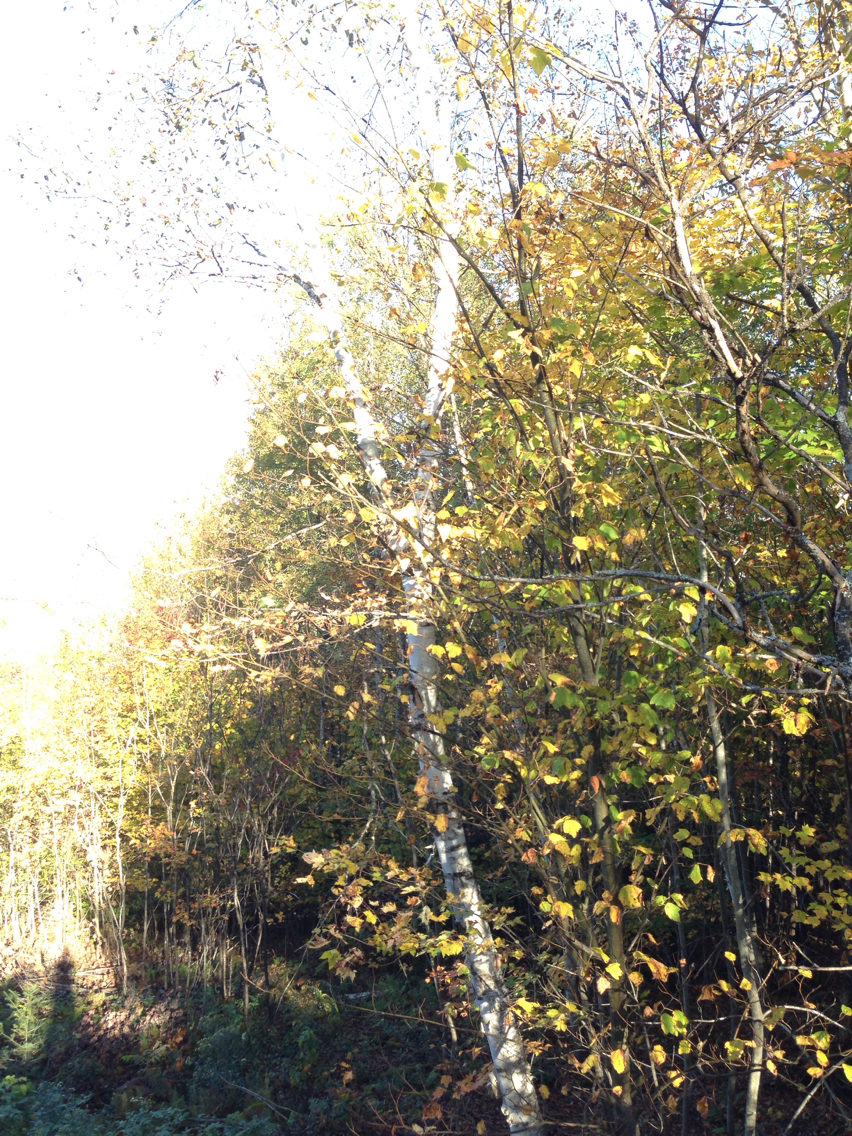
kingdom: Plantae
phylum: Tracheophyta
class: Magnoliopsida
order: Fagales
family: Betulaceae
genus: Betula
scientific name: Betula papyrifera
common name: Paper birch
